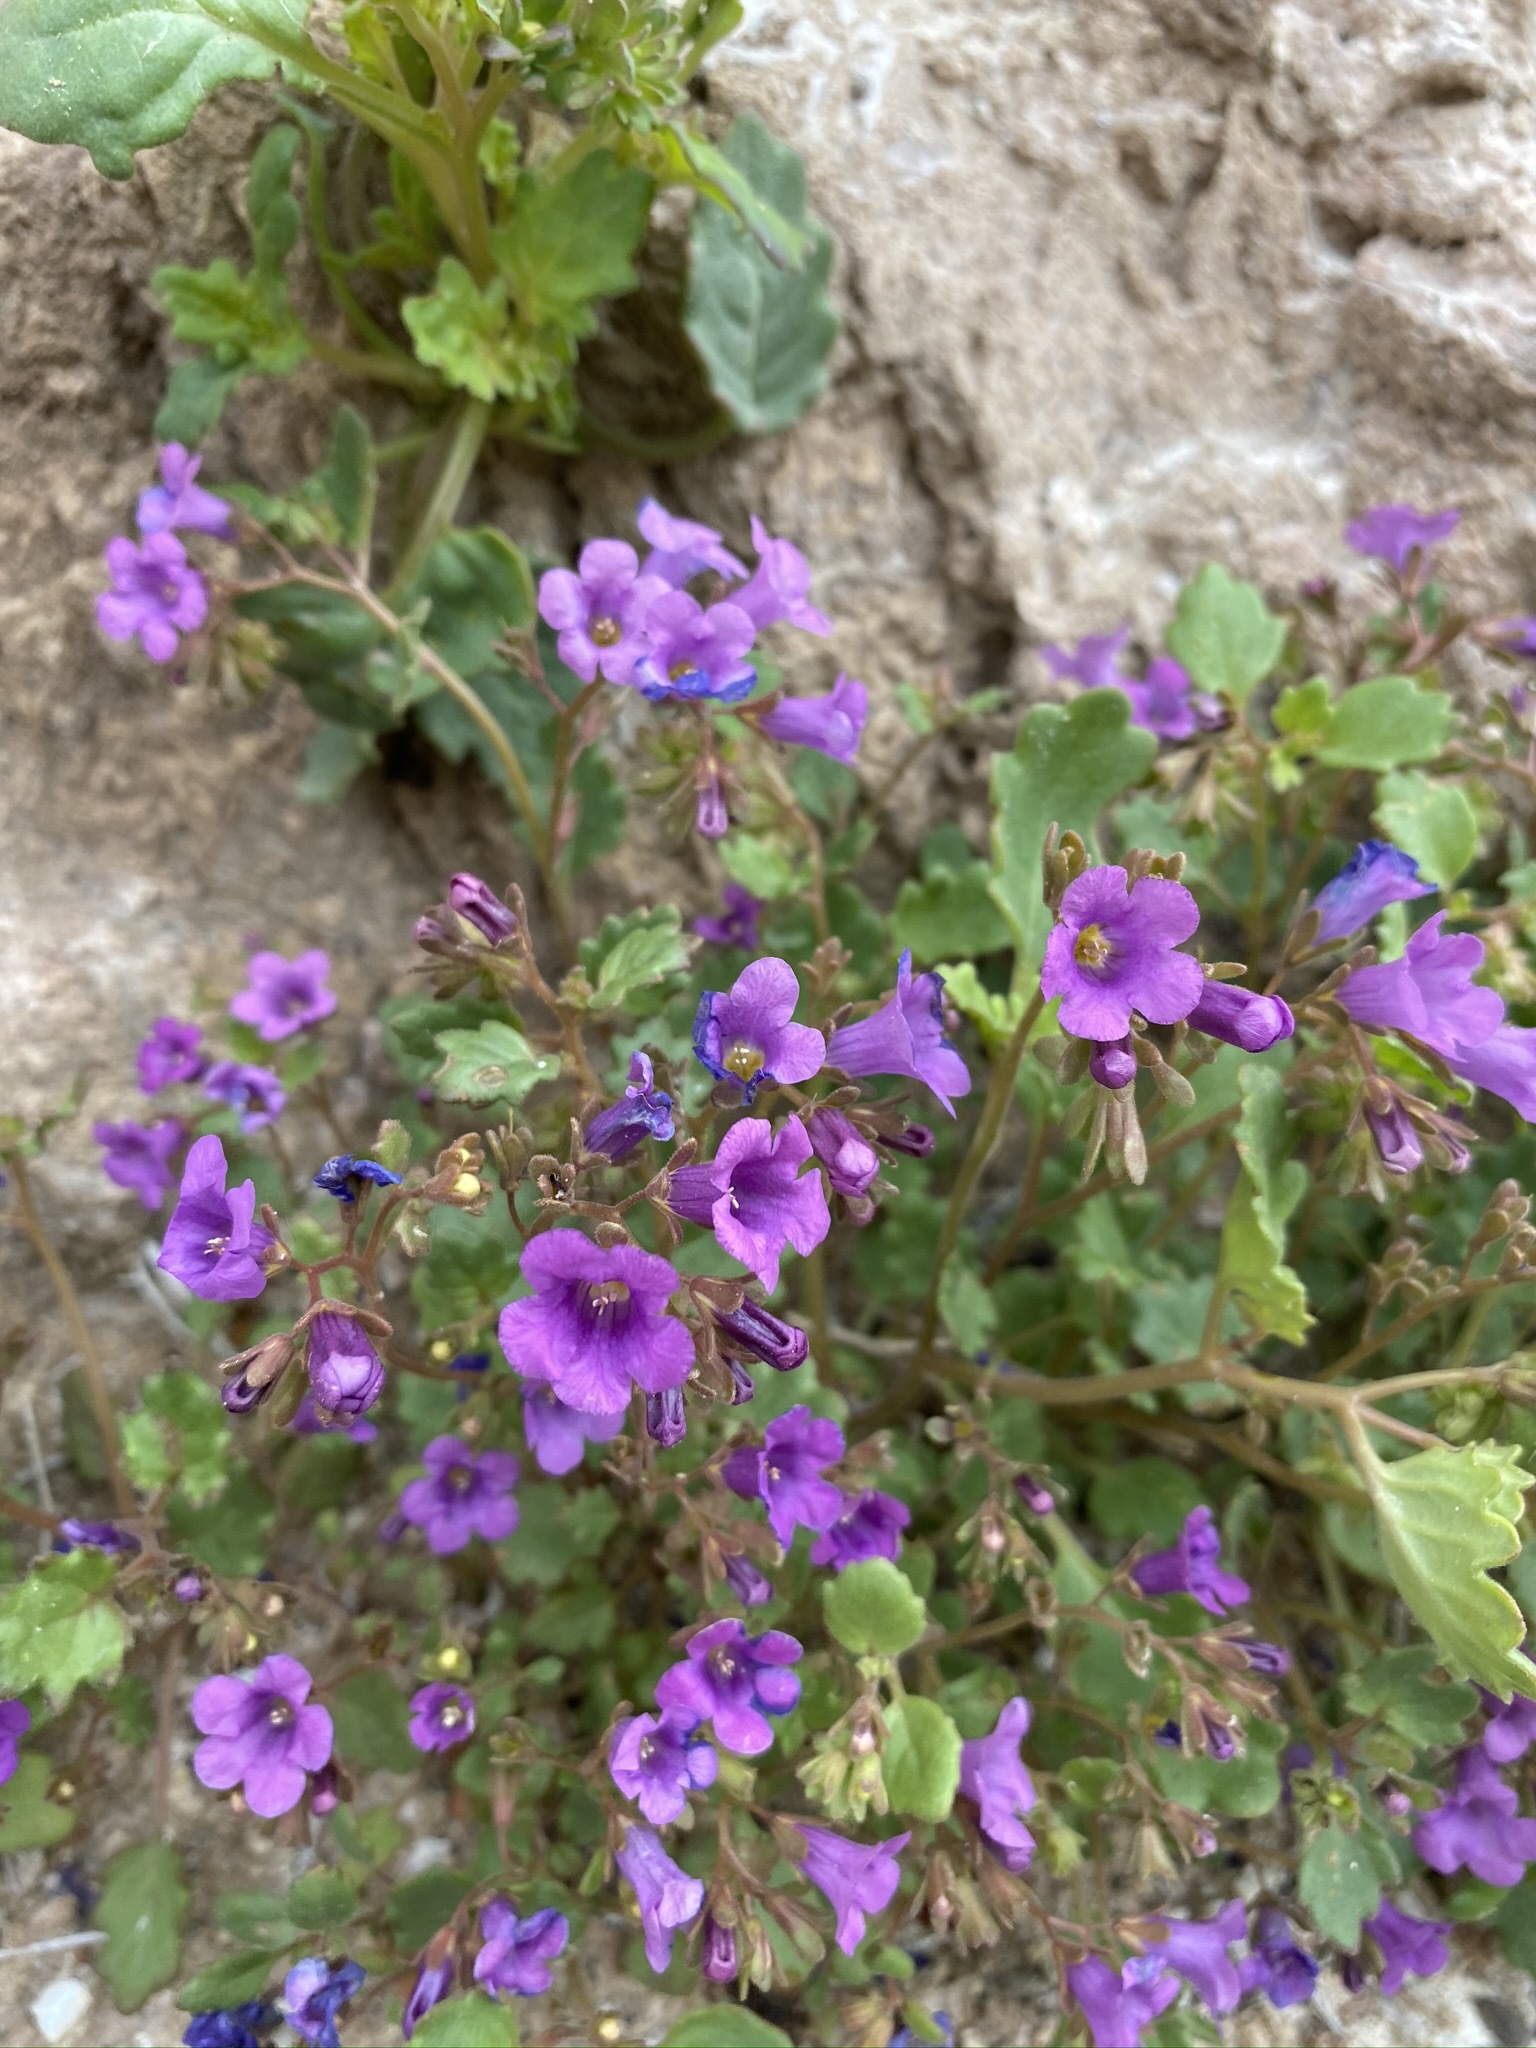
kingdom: Plantae
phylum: Tracheophyta
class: Magnoliopsida
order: Boraginales
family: Hydrophyllaceae
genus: Phacelia
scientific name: Phacelia pulchella
